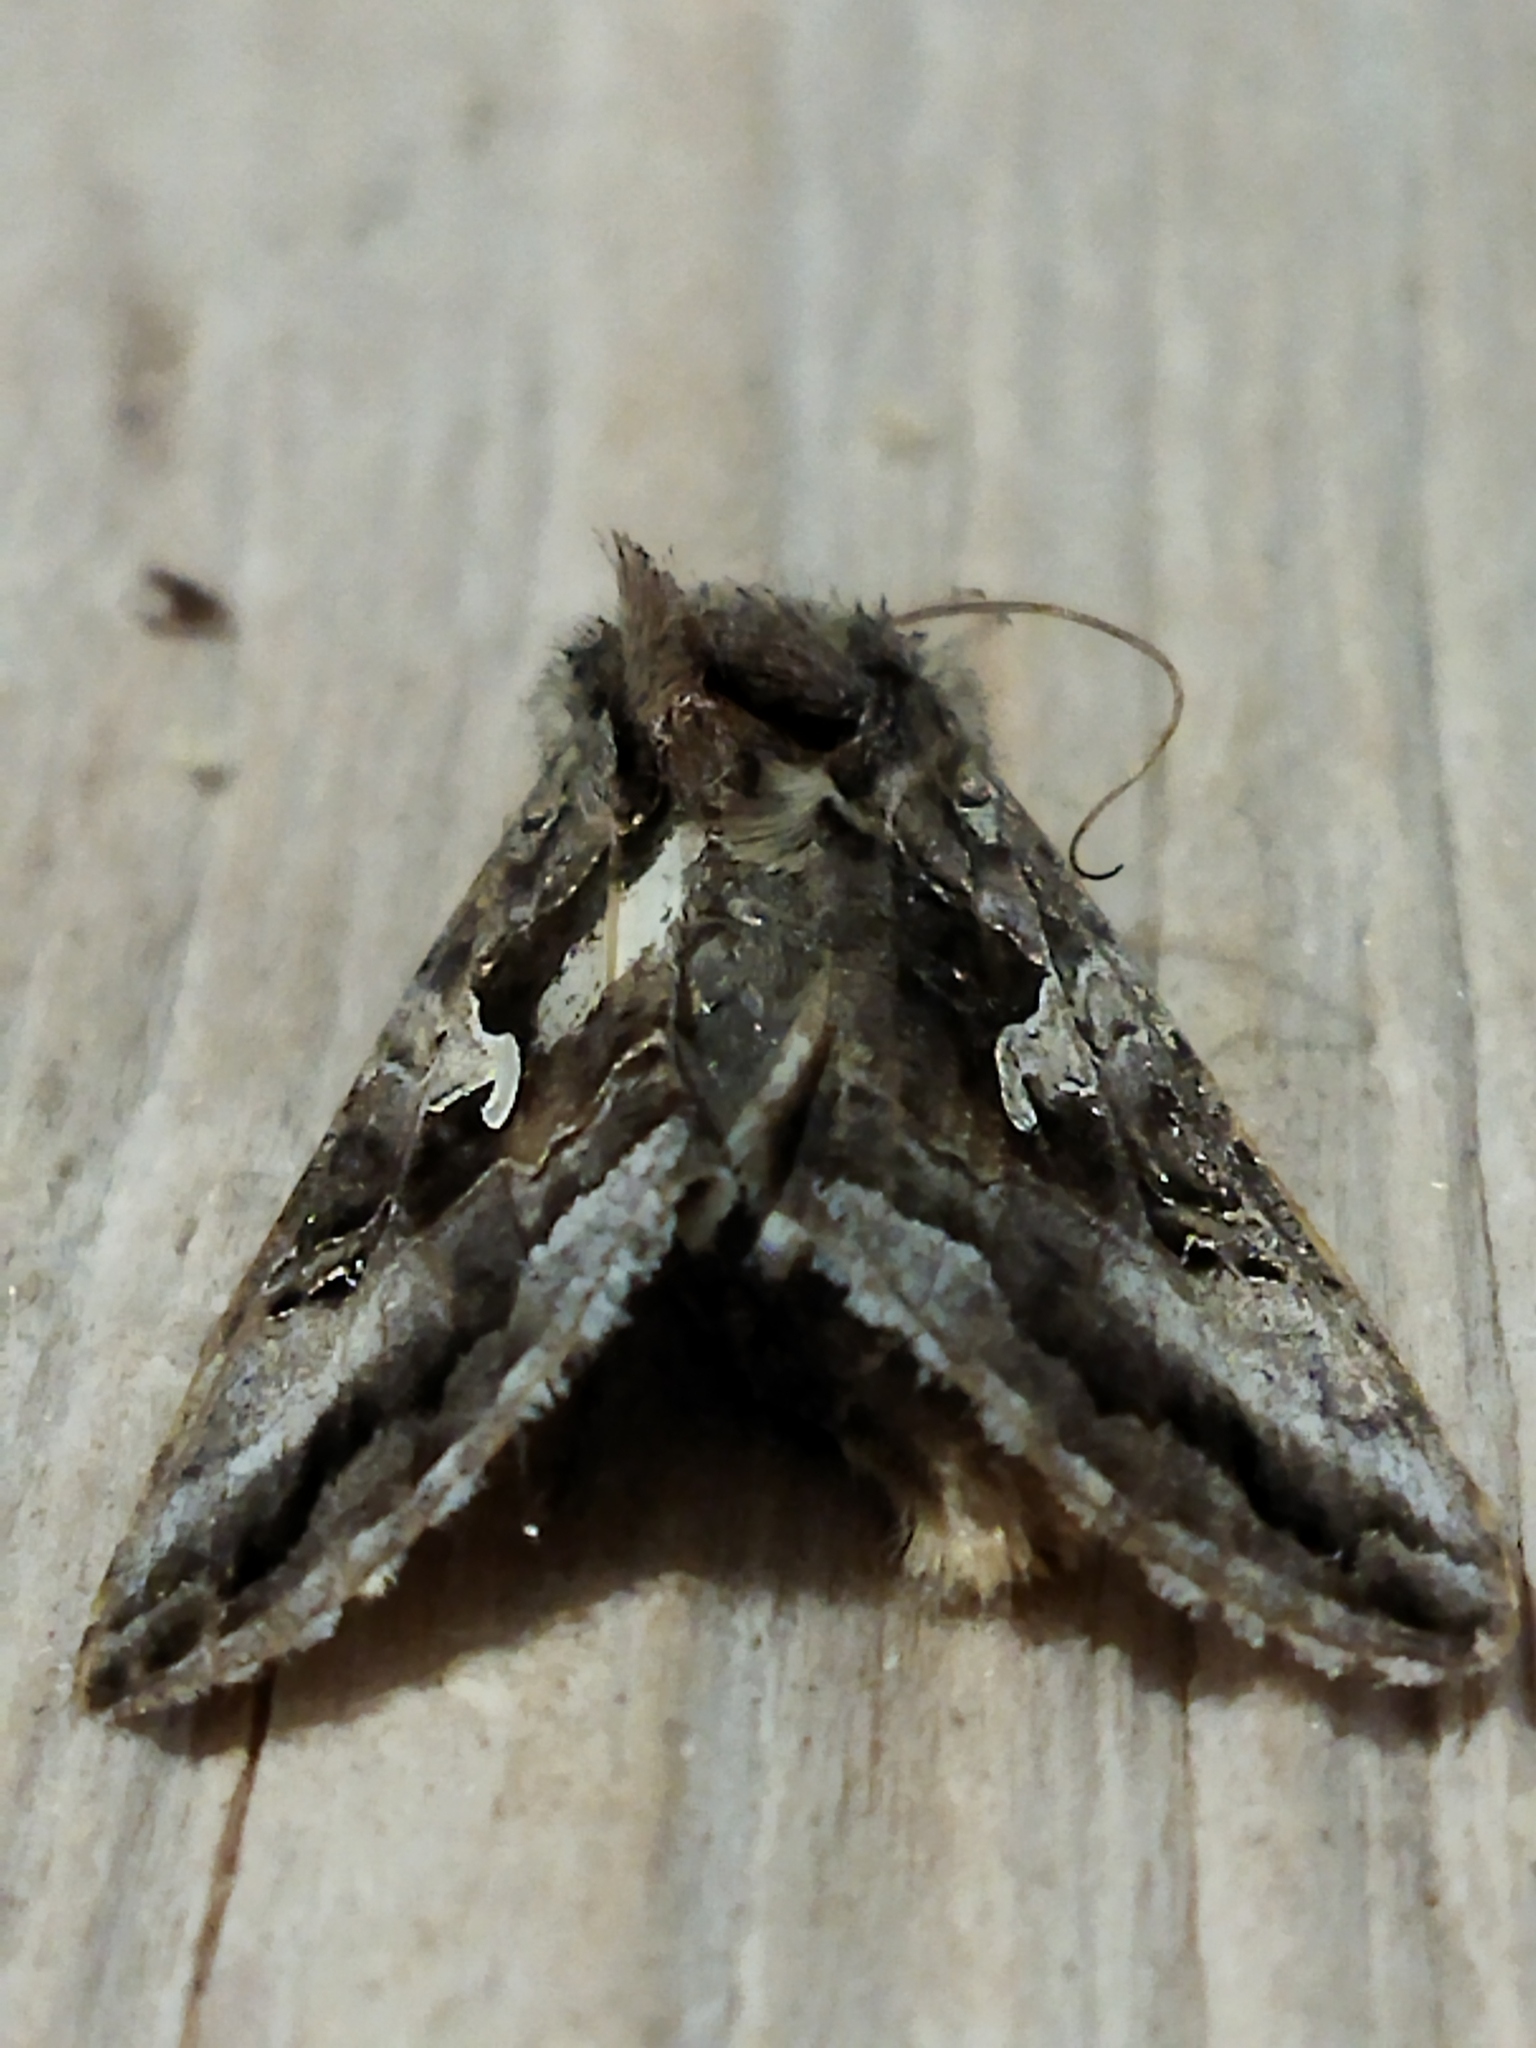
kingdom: Animalia
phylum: Arthropoda
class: Insecta
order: Lepidoptera
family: Noctuidae
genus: Autographa
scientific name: Autographa gamma
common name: Silver y
